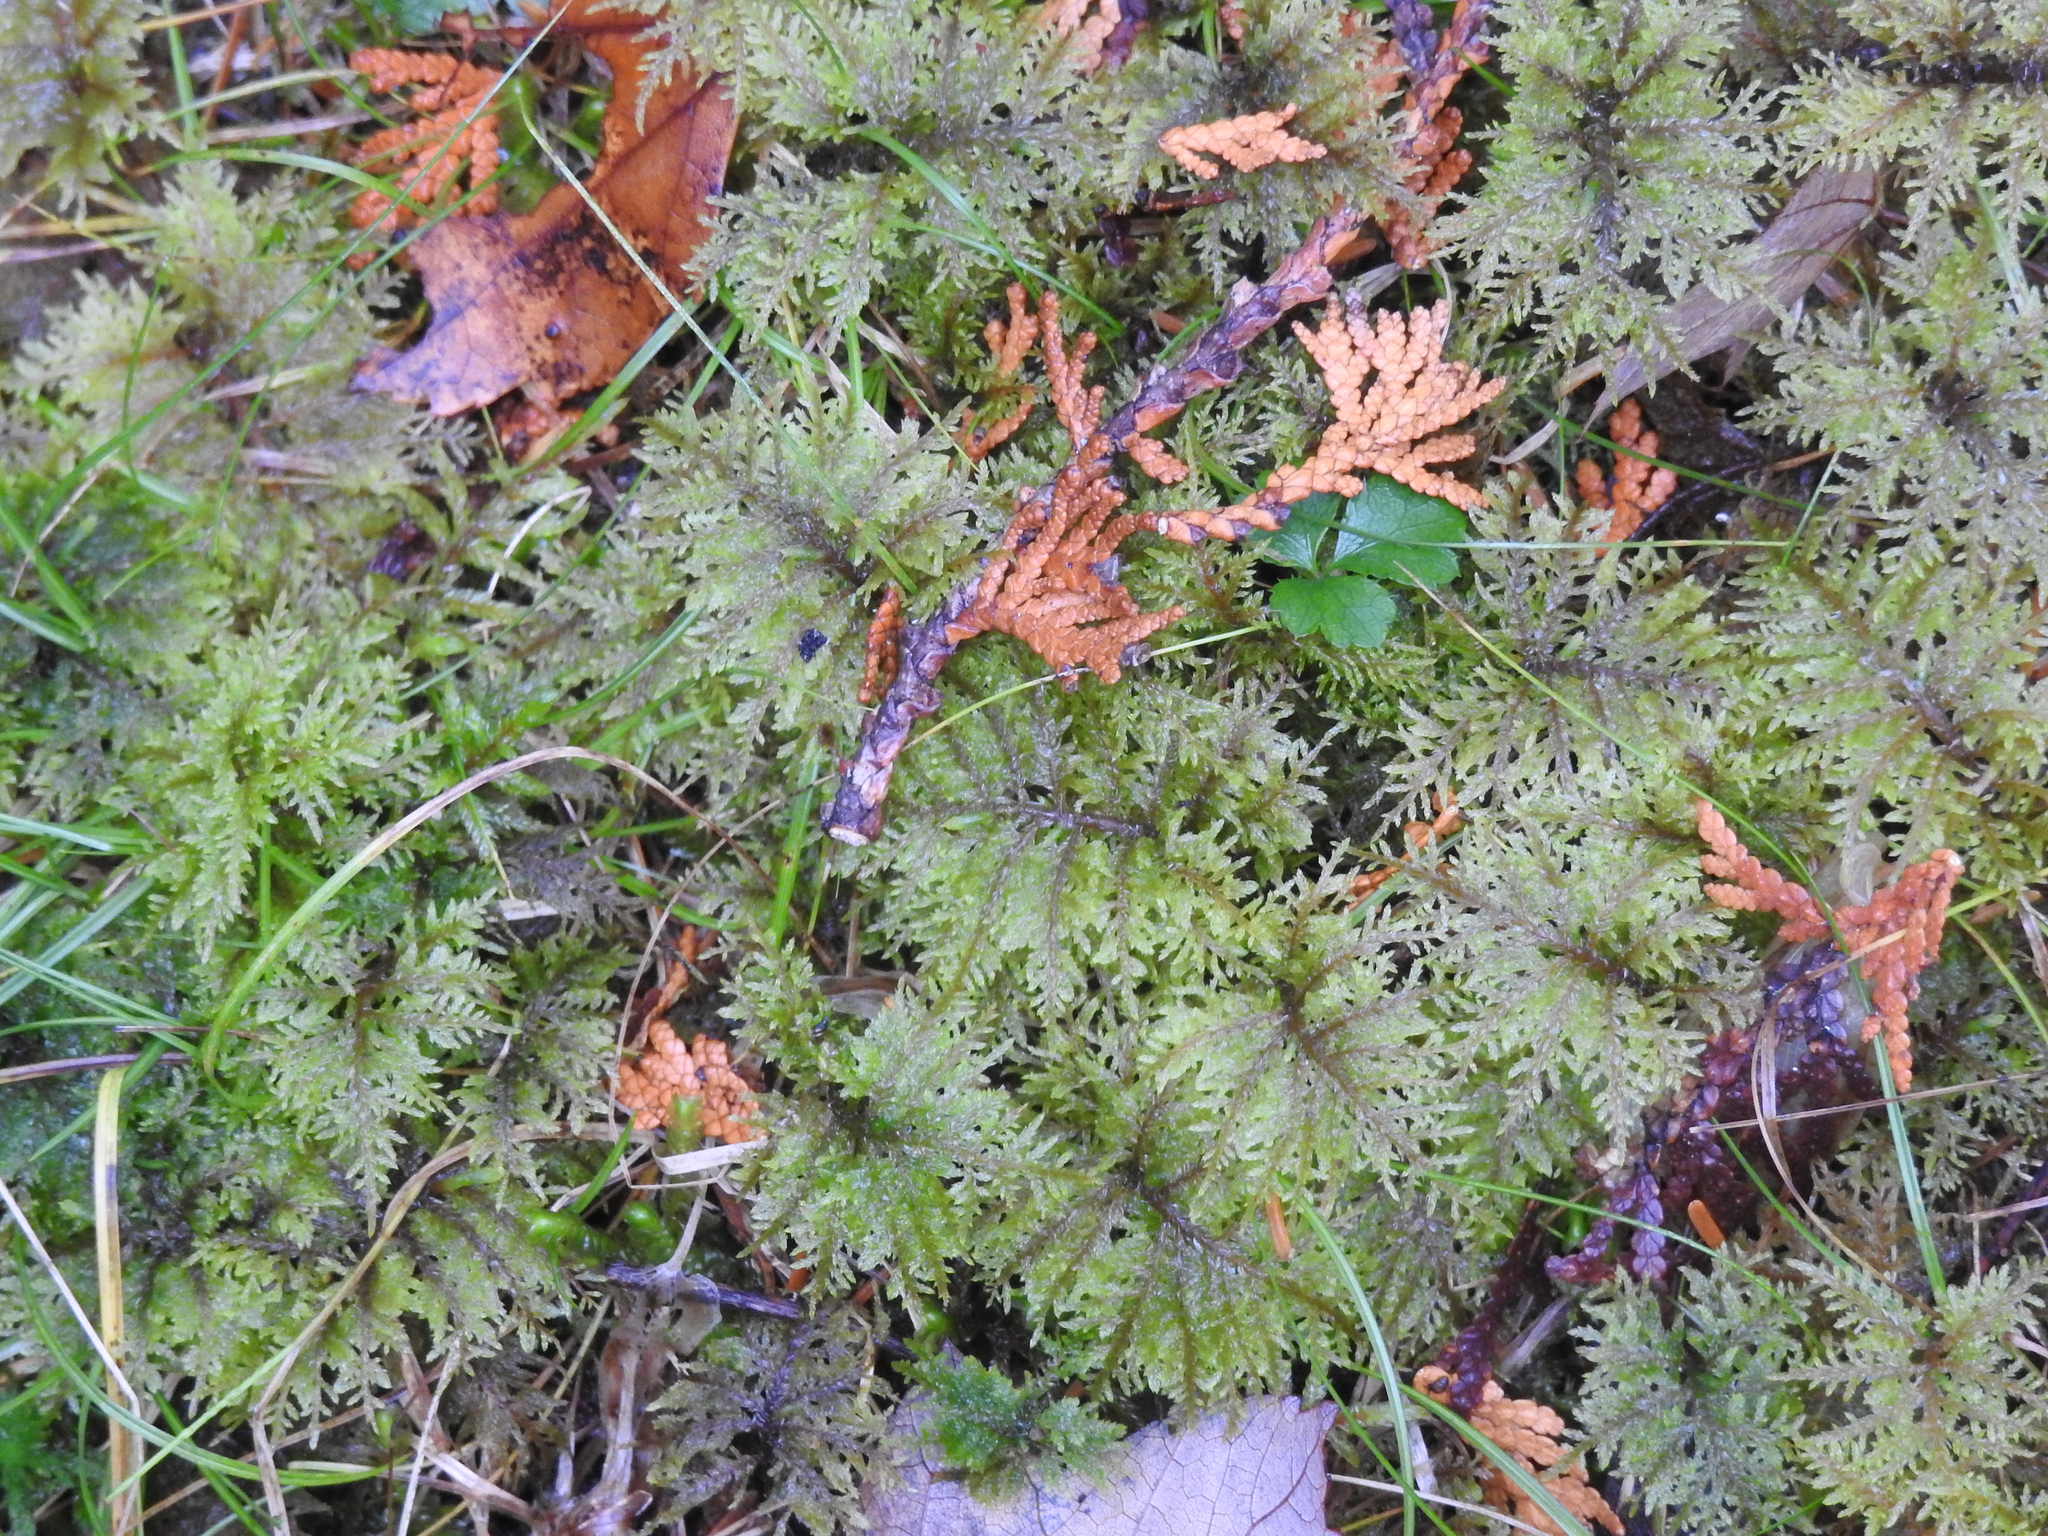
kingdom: Plantae
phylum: Bryophyta
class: Bryopsida
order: Hypnales
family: Hylocomiaceae
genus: Hylocomium
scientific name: Hylocomium splendens
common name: Stairstep moss
